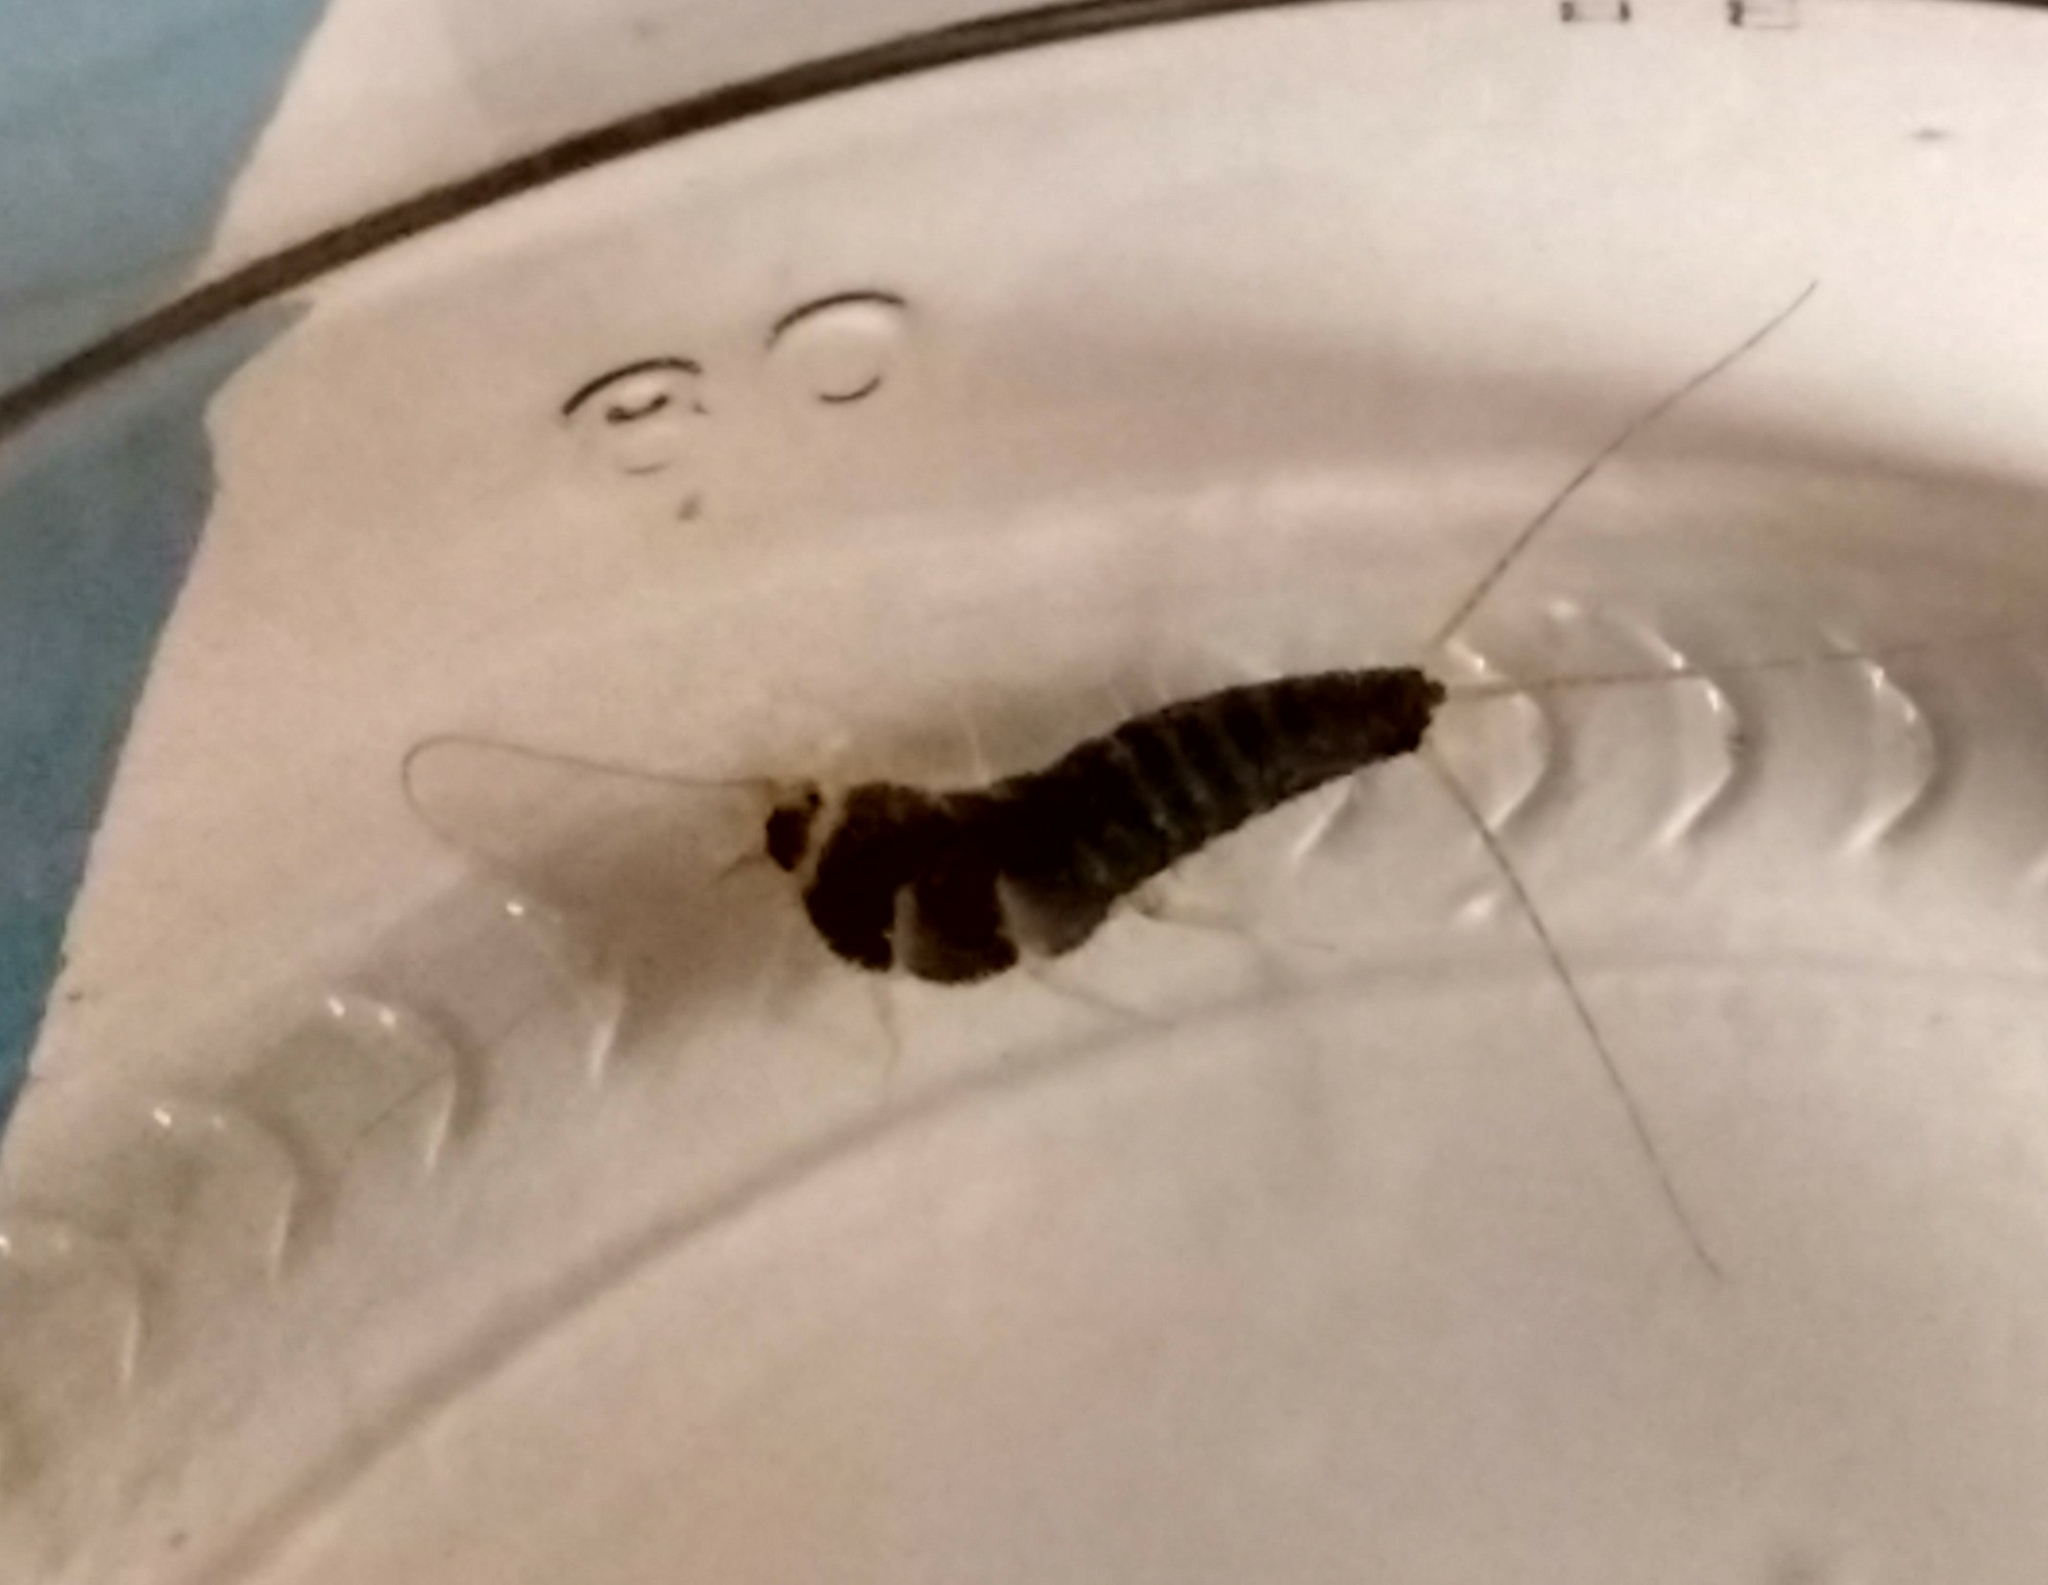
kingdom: Animalia
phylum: Arthropoda
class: Insecta
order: Zygentoma
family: Lepismatidae
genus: Ctenolepisma
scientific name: Ctenolepisma longicaudatum
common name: Silverfish
